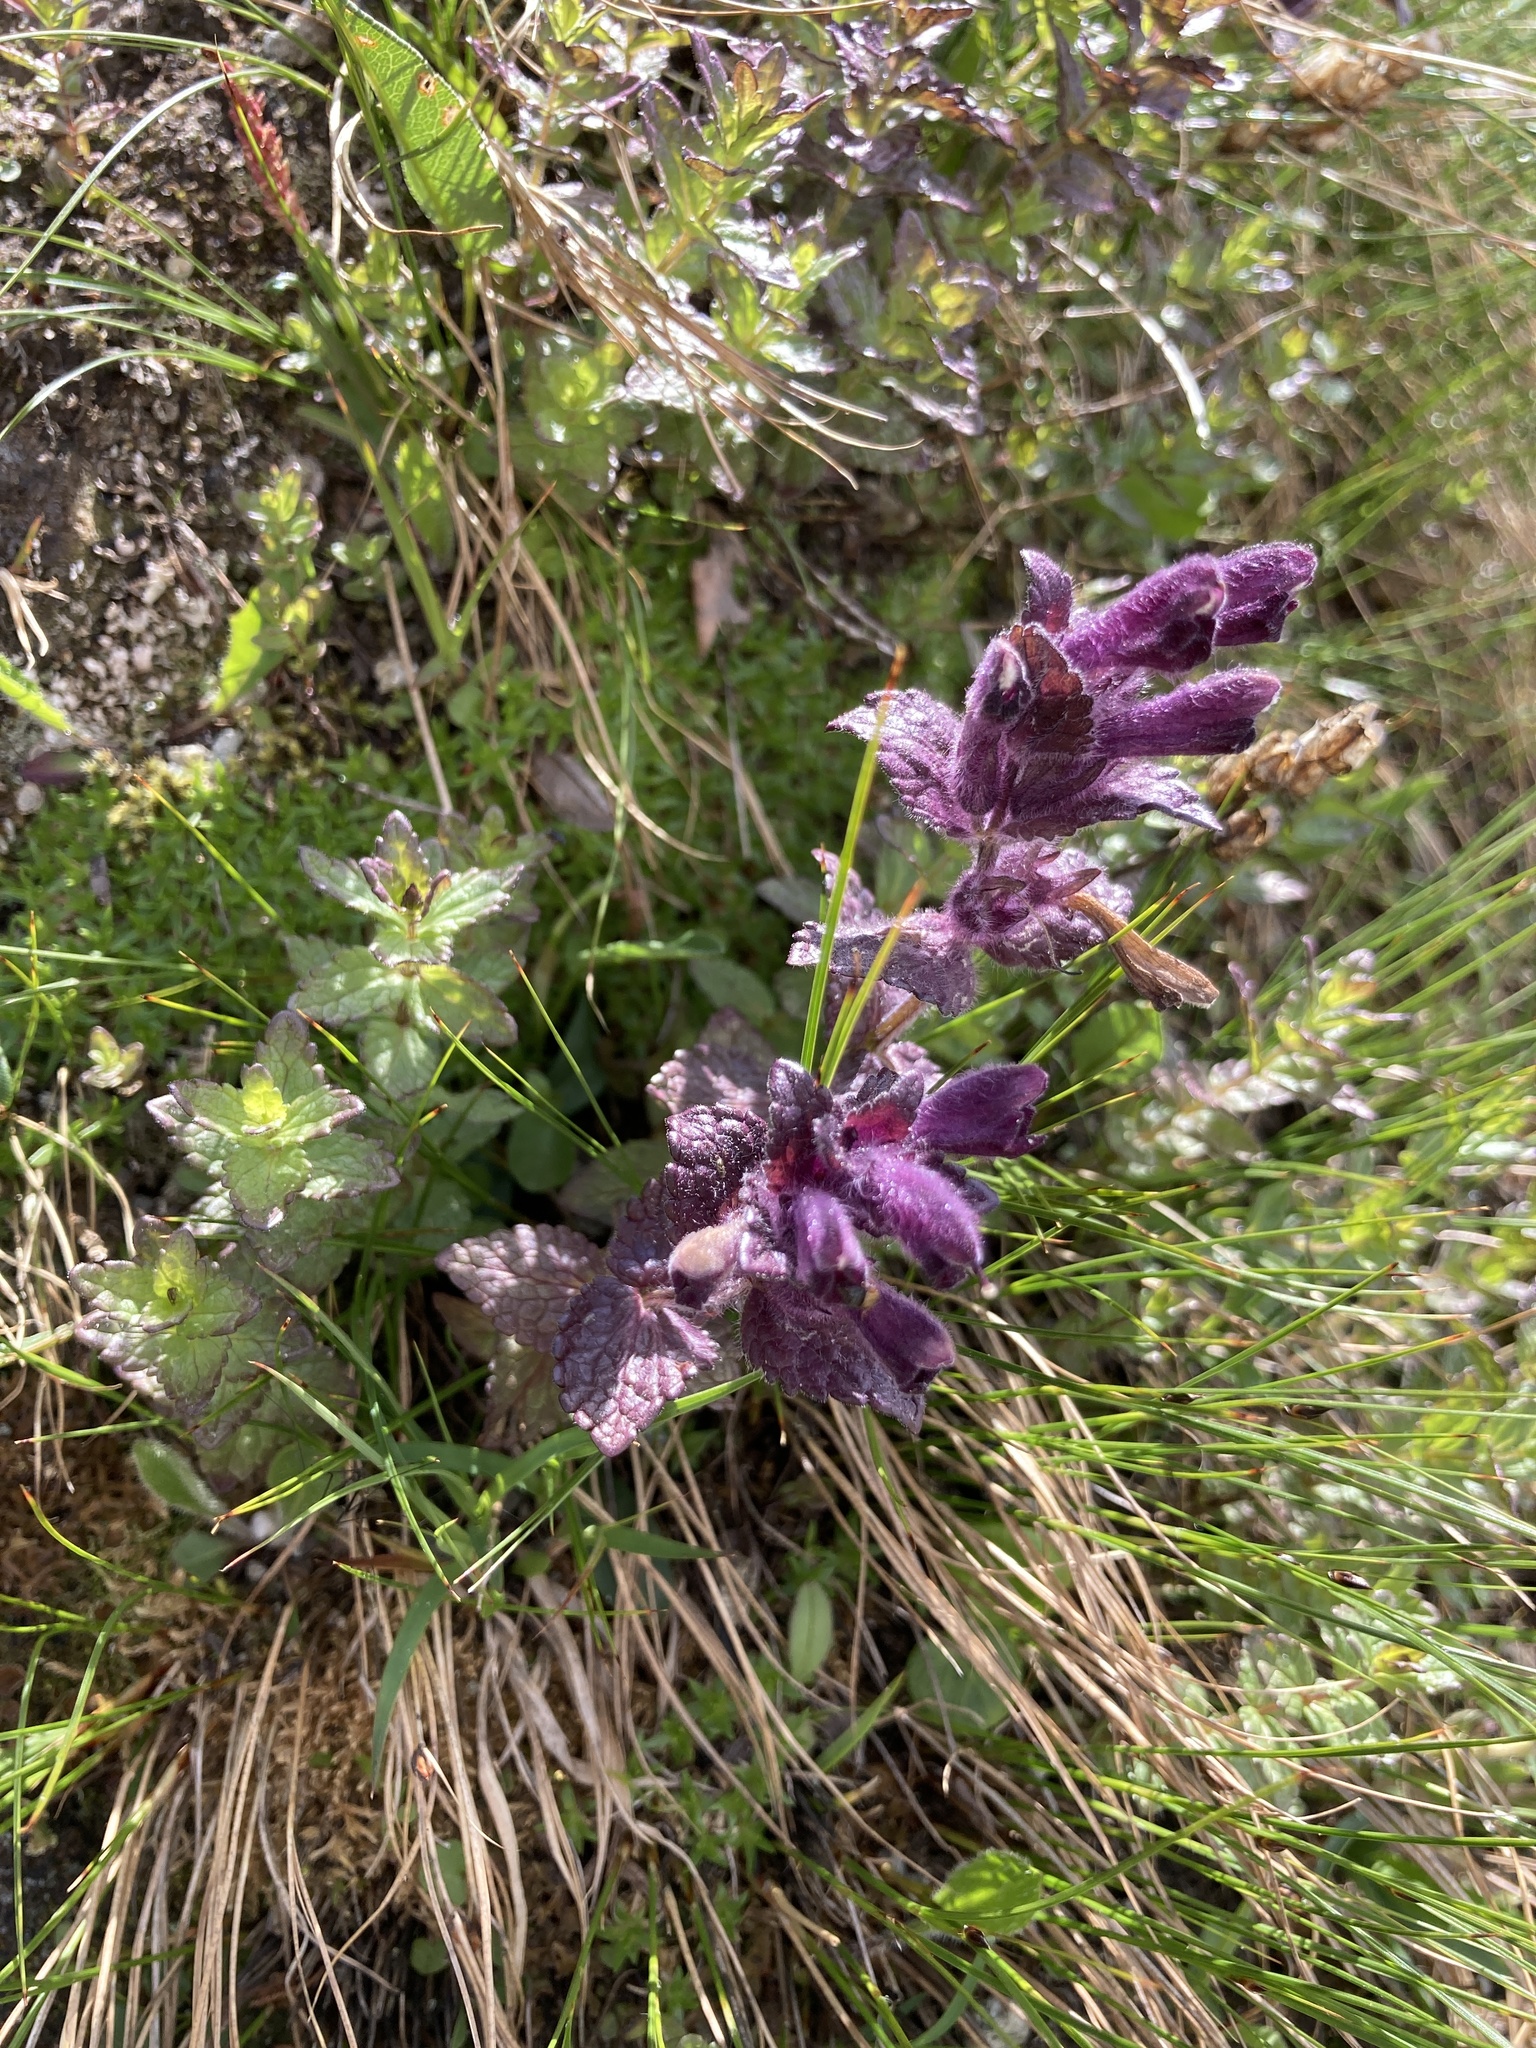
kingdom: Plantae
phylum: Tracheophyta
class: Magnoliopsida
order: Lamiales
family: Orobanchaceae
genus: Bartsia
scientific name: Bartsia alpina
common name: Alpine bartsia
